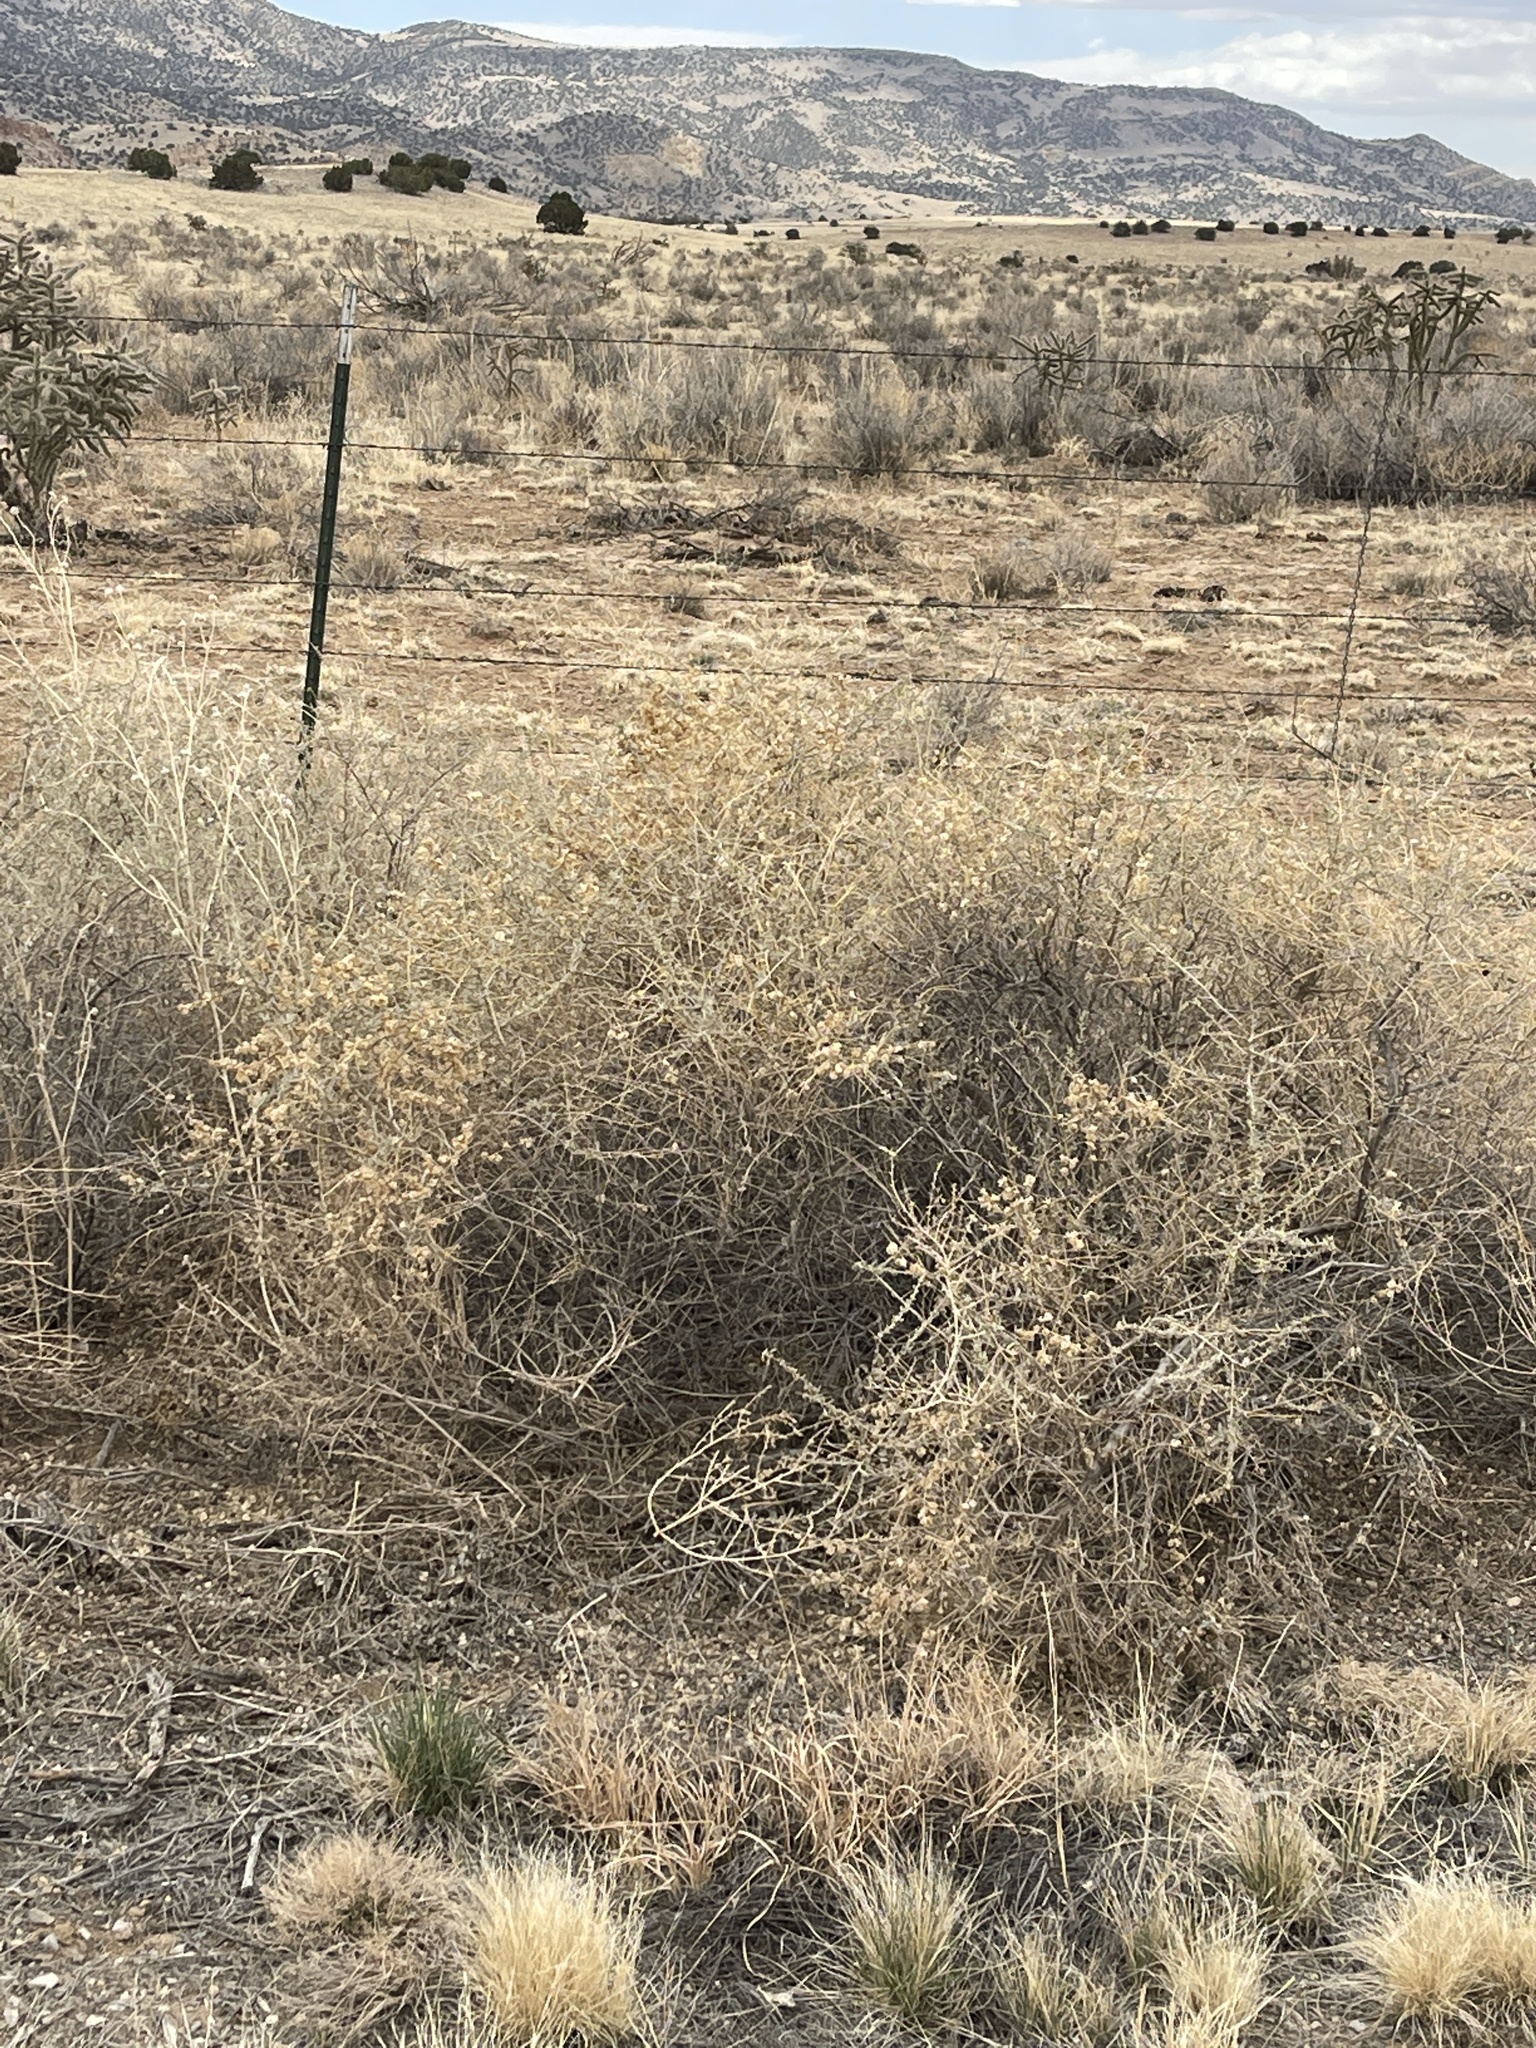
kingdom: Plantae
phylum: Tracheophyta
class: Magnoliopsida
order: Caryophyllales
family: Amaranthaceae
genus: Atriplex
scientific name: Atriplex canescens
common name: Four-wing saltbush
